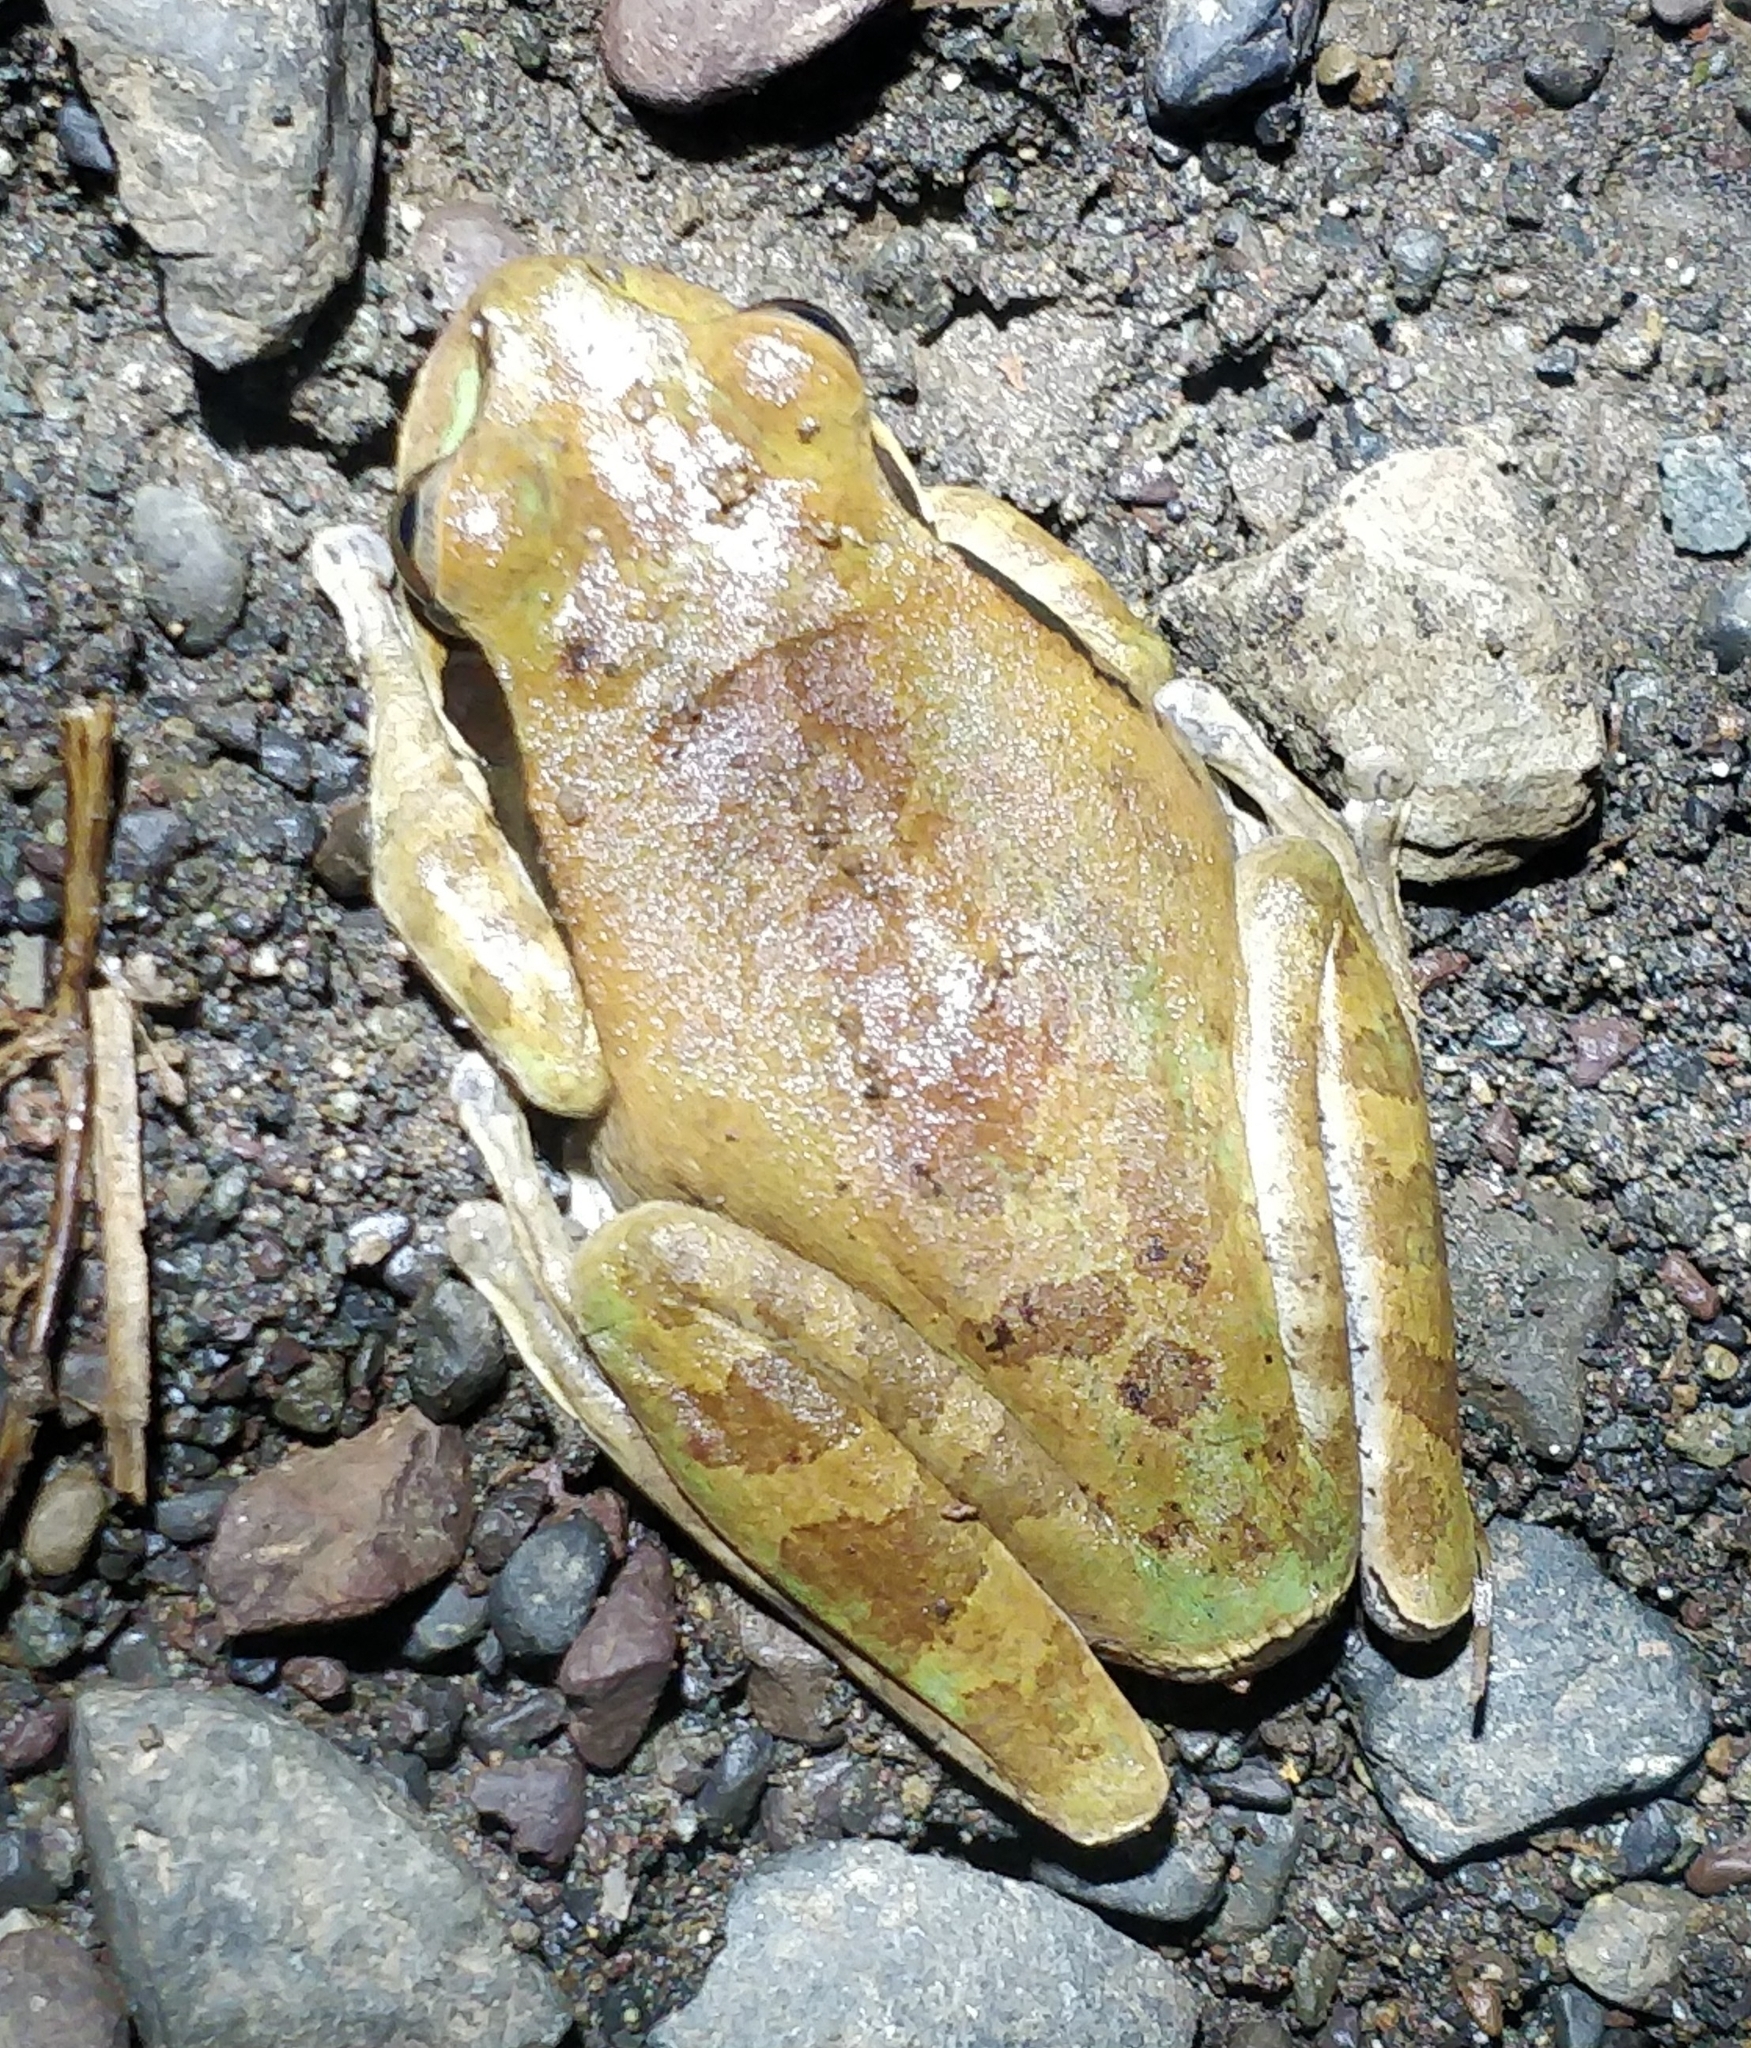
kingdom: Animalia
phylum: Chordata
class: Amphibia
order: Anura
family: Hylidae
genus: Smilisca
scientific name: Smilisca phaeota
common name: Central american smilisca
